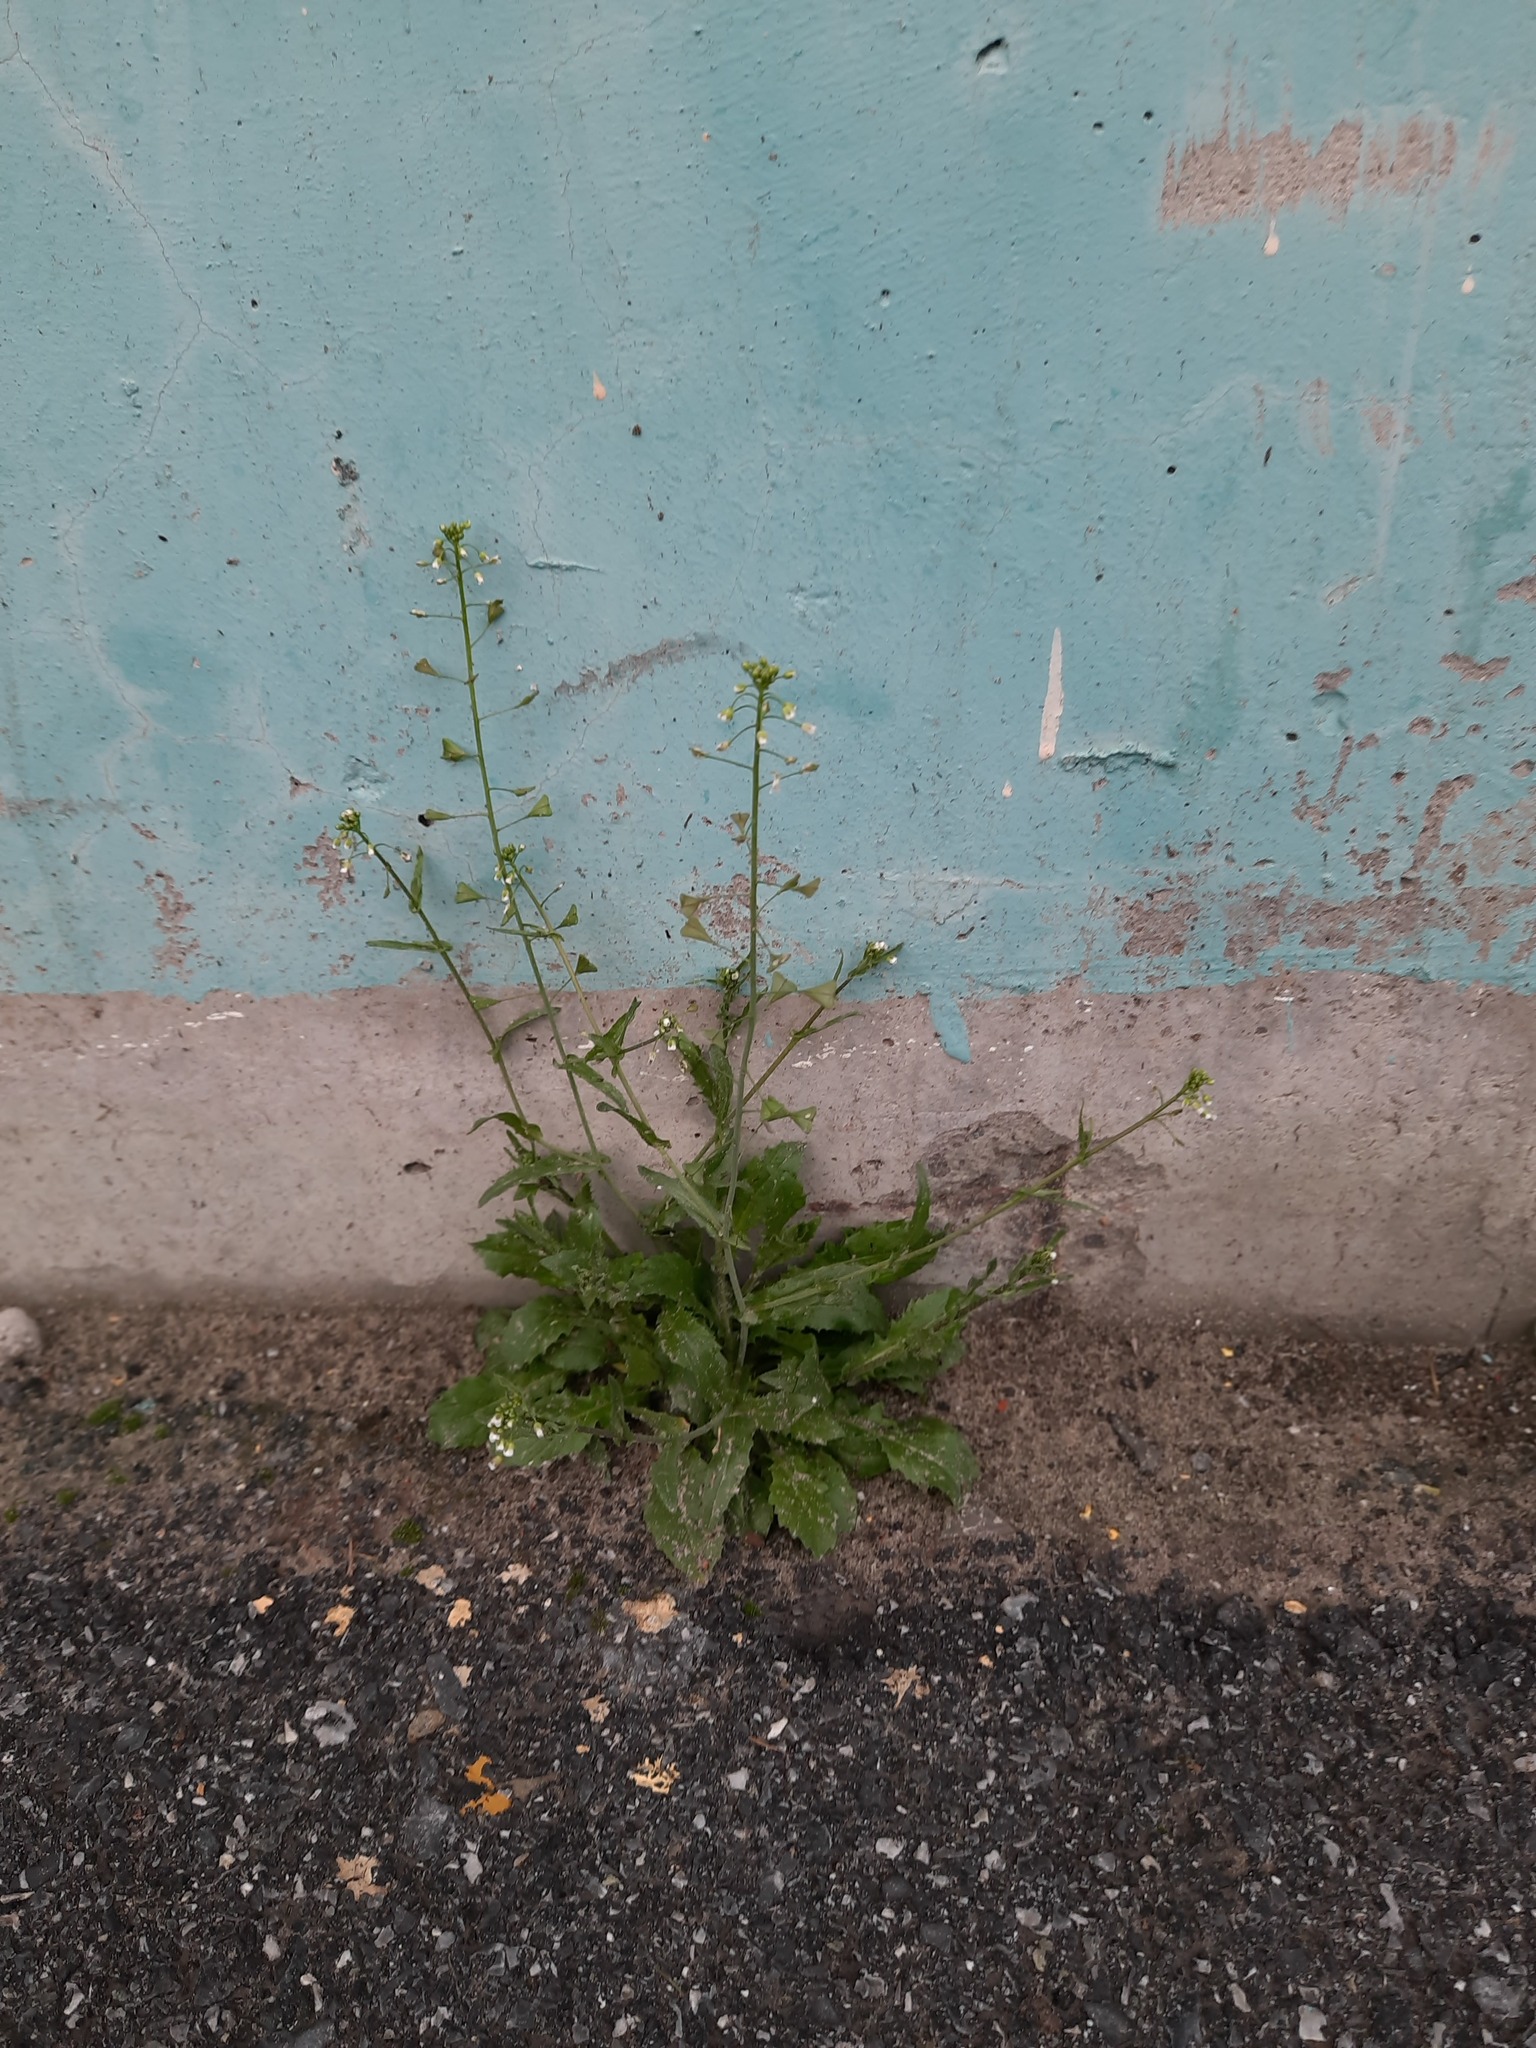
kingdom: Plantae
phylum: Tracheophyta
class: Magnoliopsida
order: Brassicales
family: Brassicaceae
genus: Capsella
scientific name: Capsella bursa-pastoris
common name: Shepherd's purse
